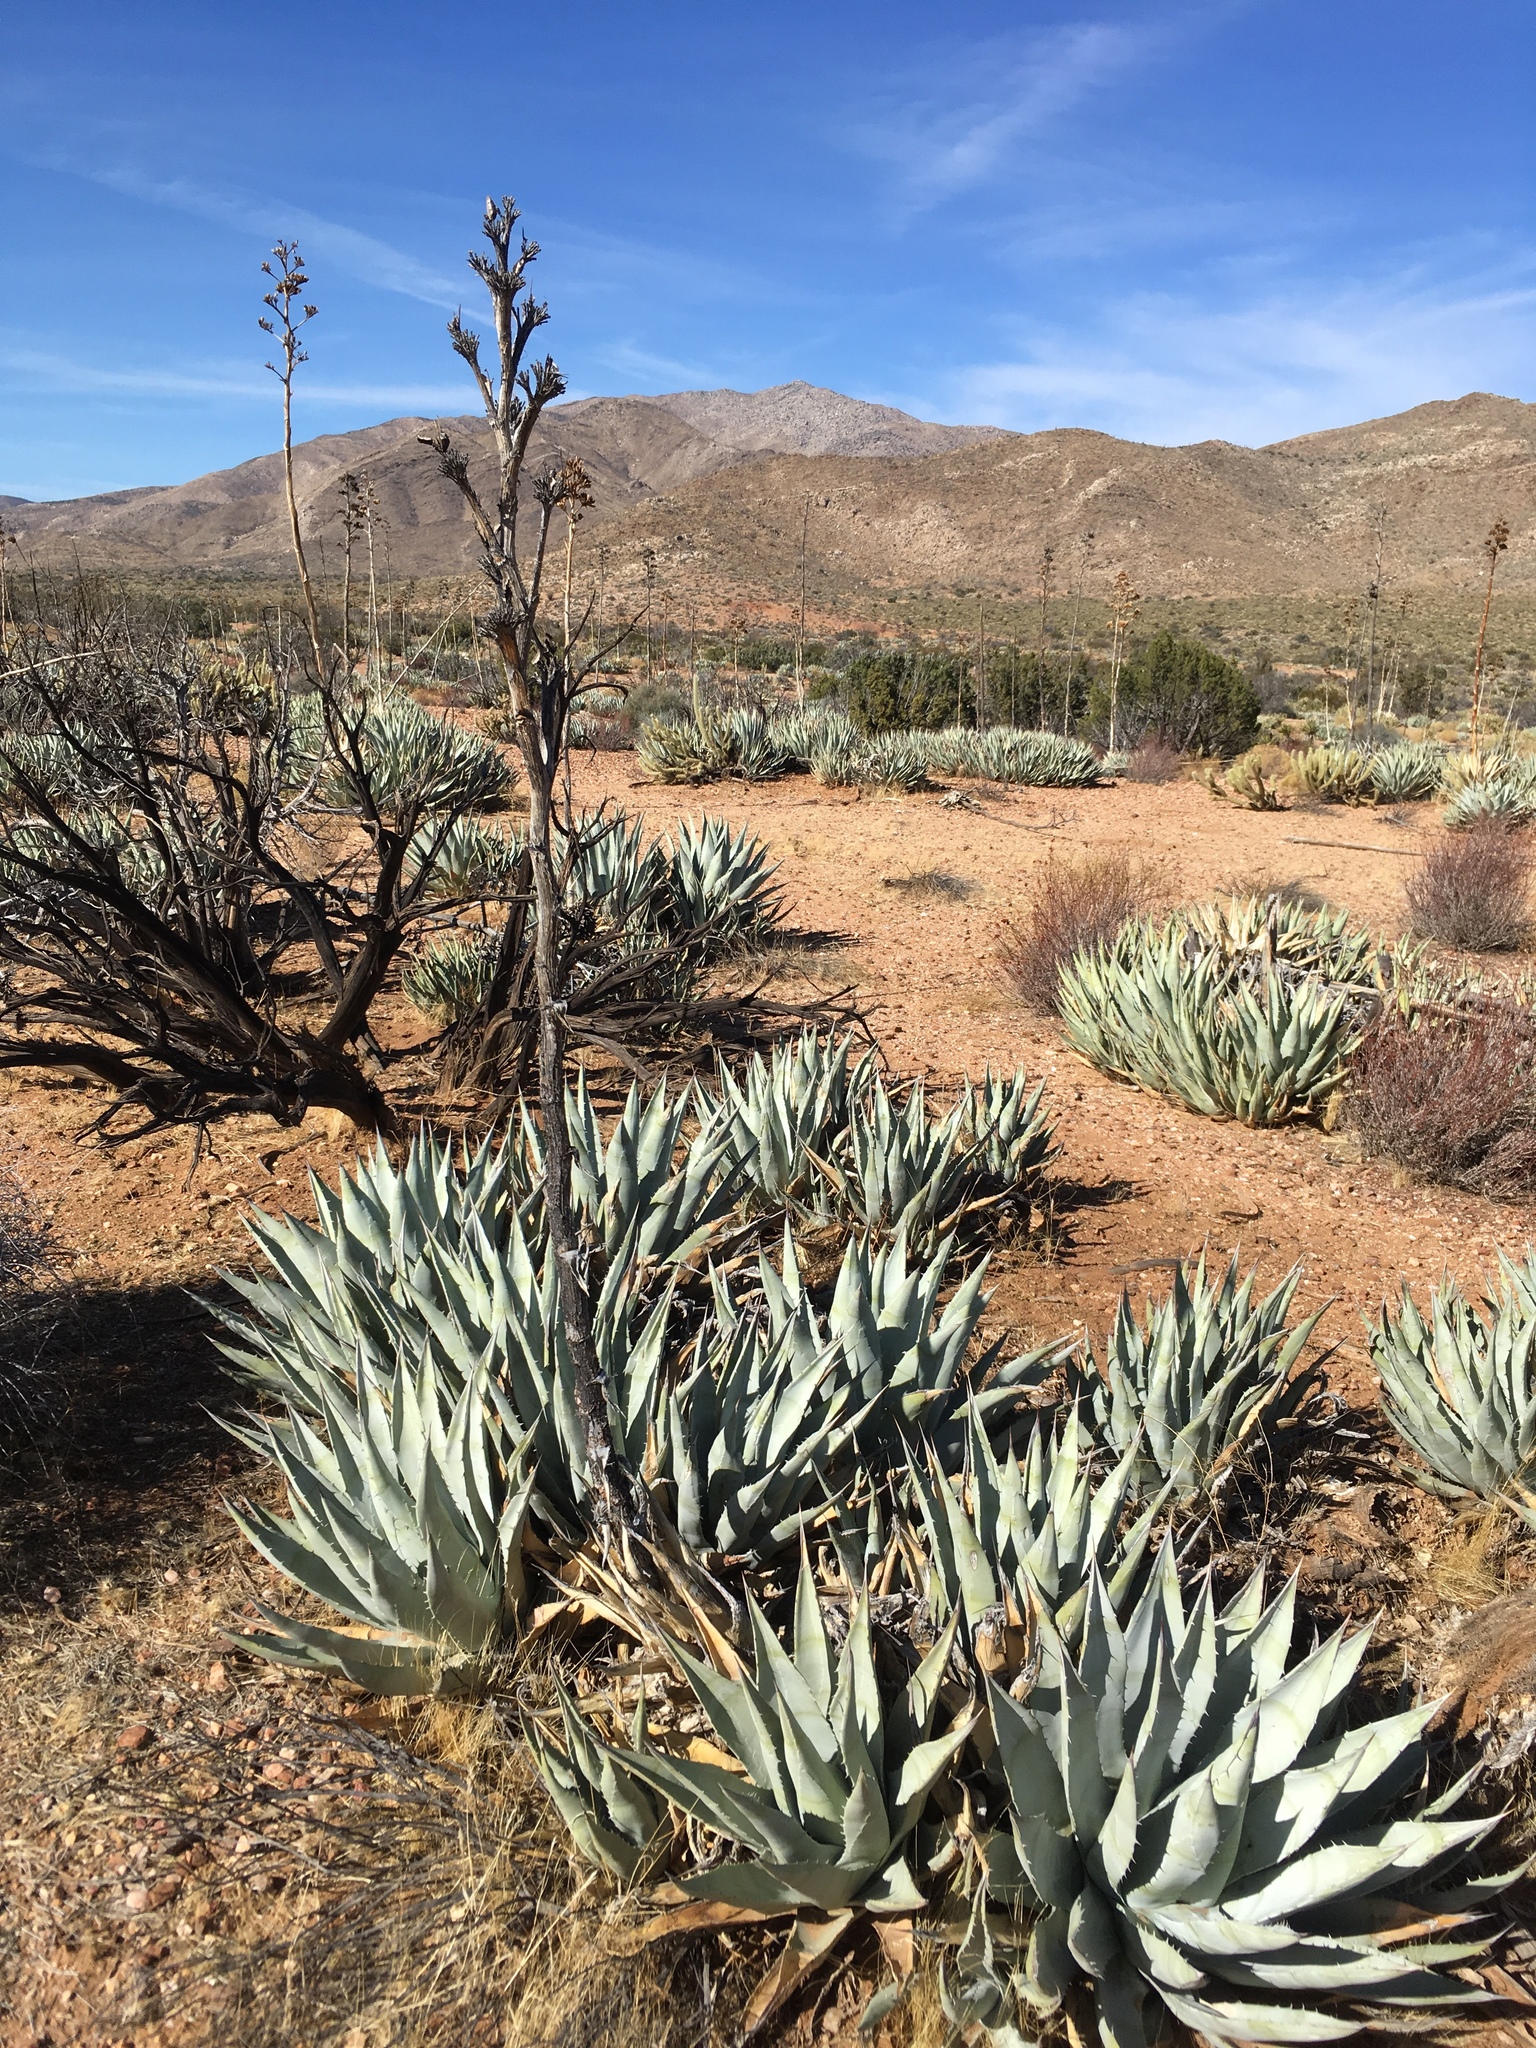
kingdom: Plantae
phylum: Tracheophyta
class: Liliopsida
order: Asparagales
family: Asparagaceae
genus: Agave
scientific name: Agave deserti
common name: Desert agave
